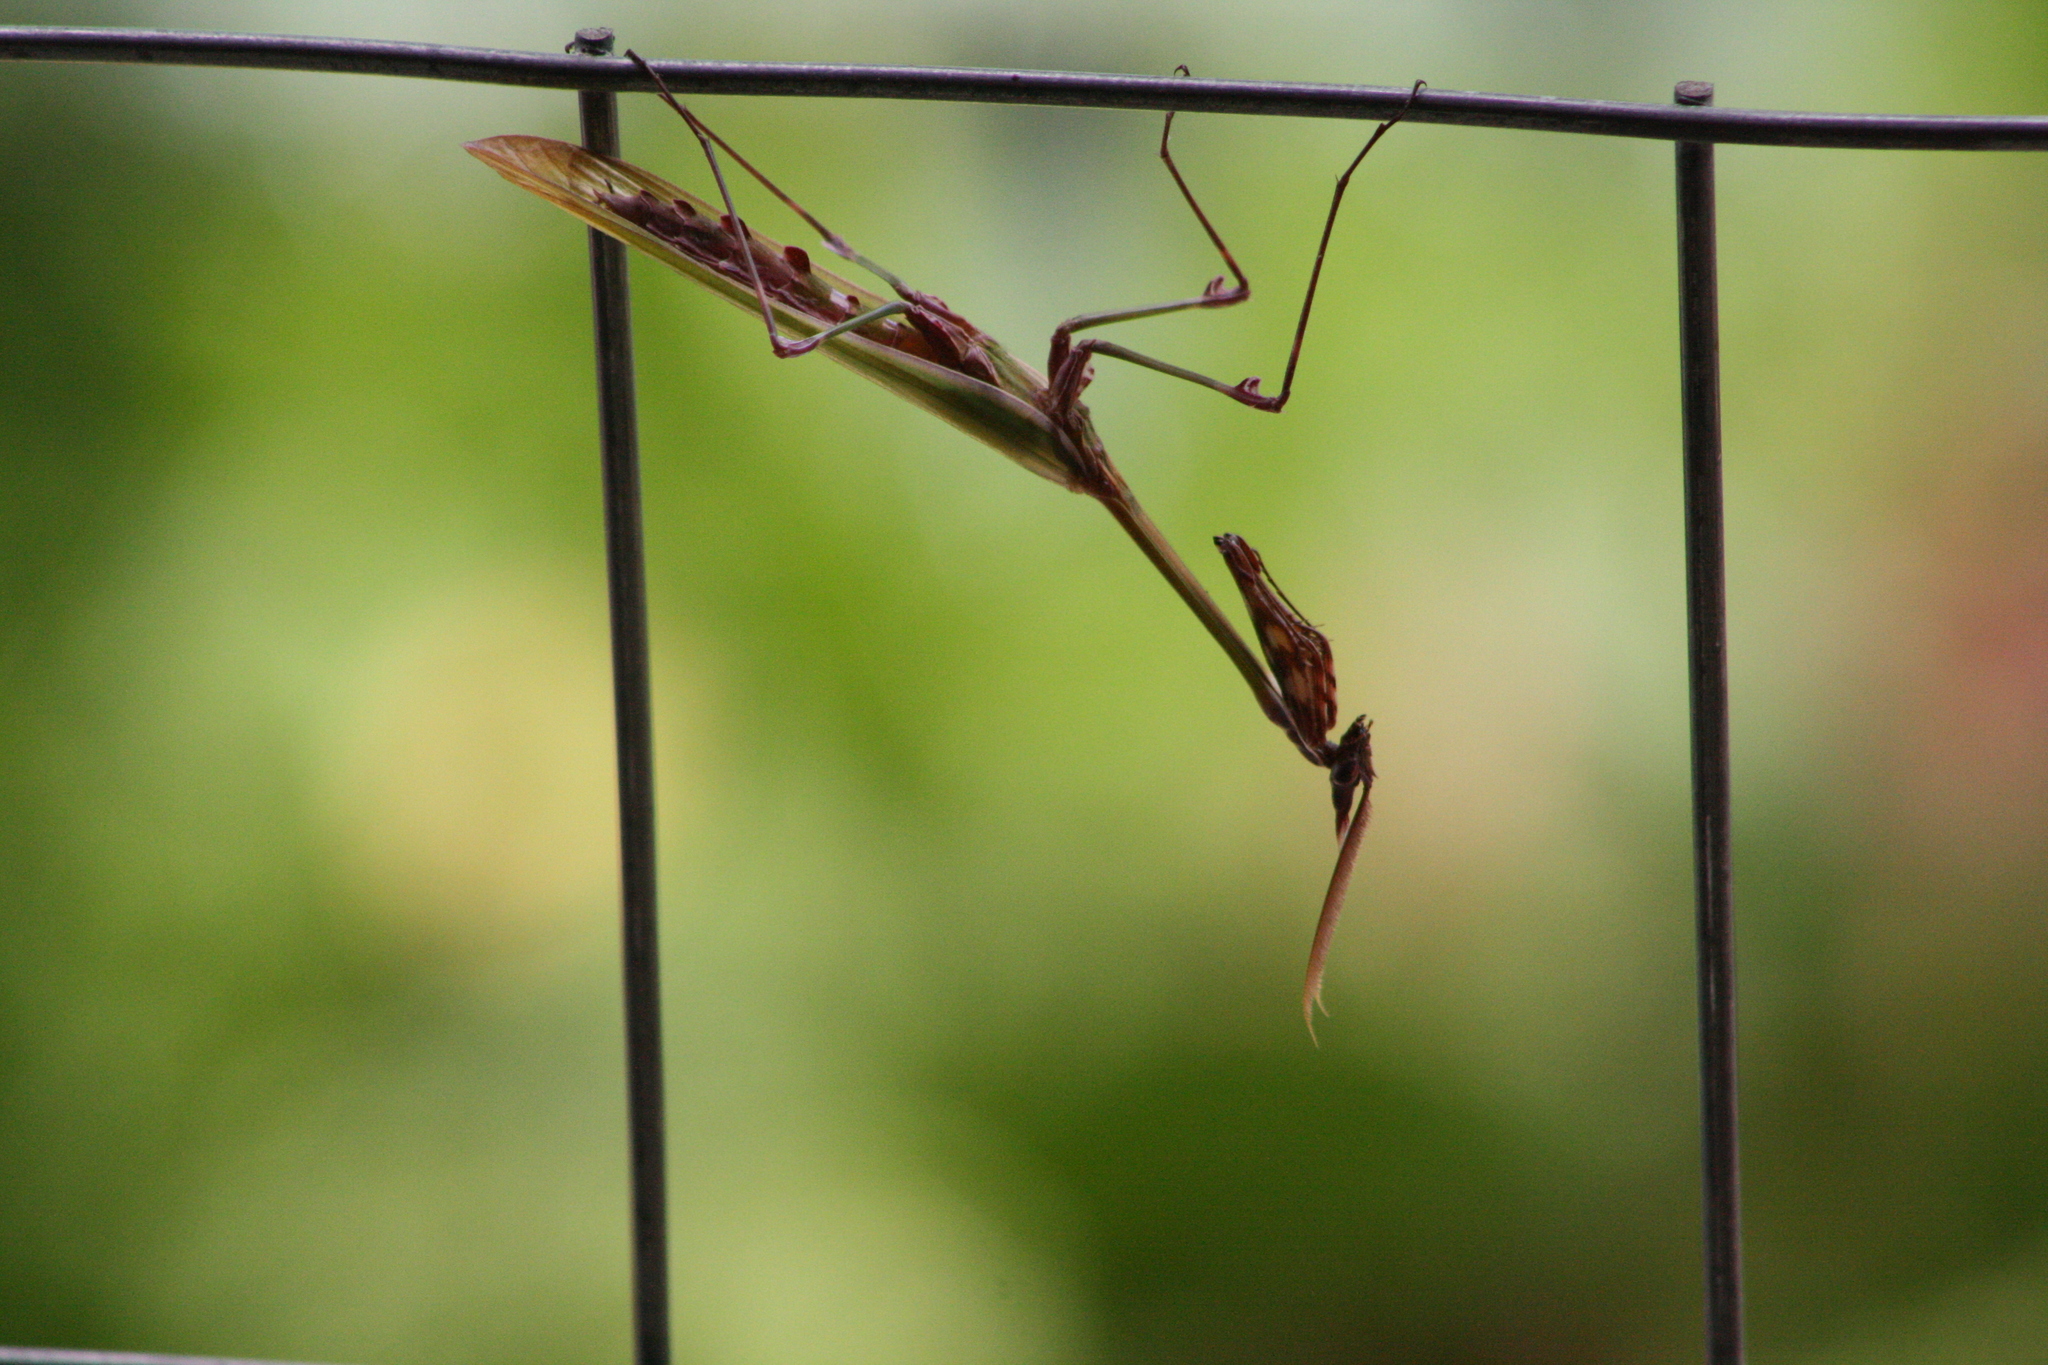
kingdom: Animalia
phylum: Arthropoda
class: Insecta
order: Mantodea
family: Empusidae
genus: Empusa
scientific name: Empusa fasciata
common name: Devil's mare
